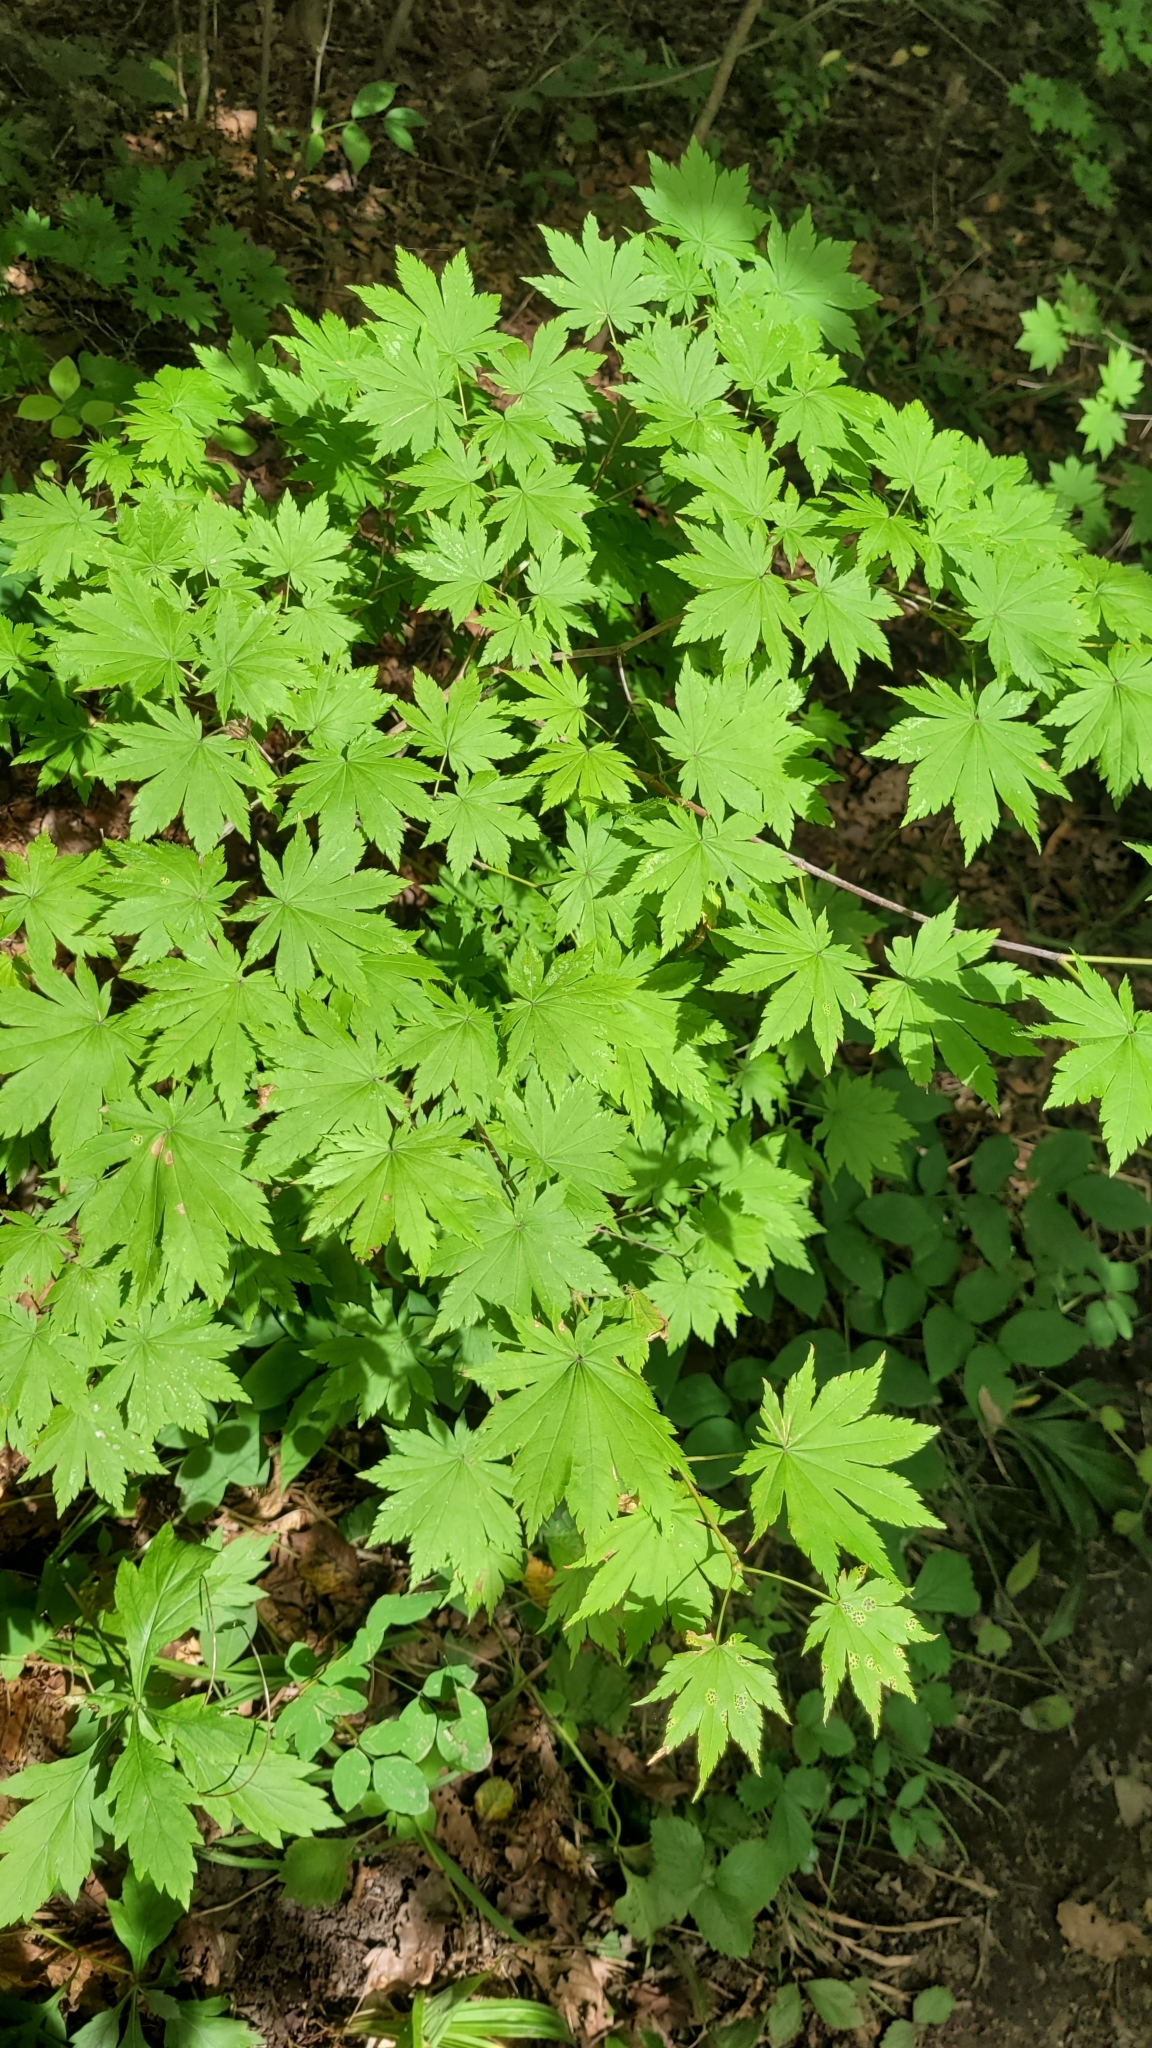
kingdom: Plantae
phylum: Tracheophyta
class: Magnoliopsida
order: Sapindales
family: Sapindaceae
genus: Acer
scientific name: Acer pseudosieboldianum
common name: Korean maple
